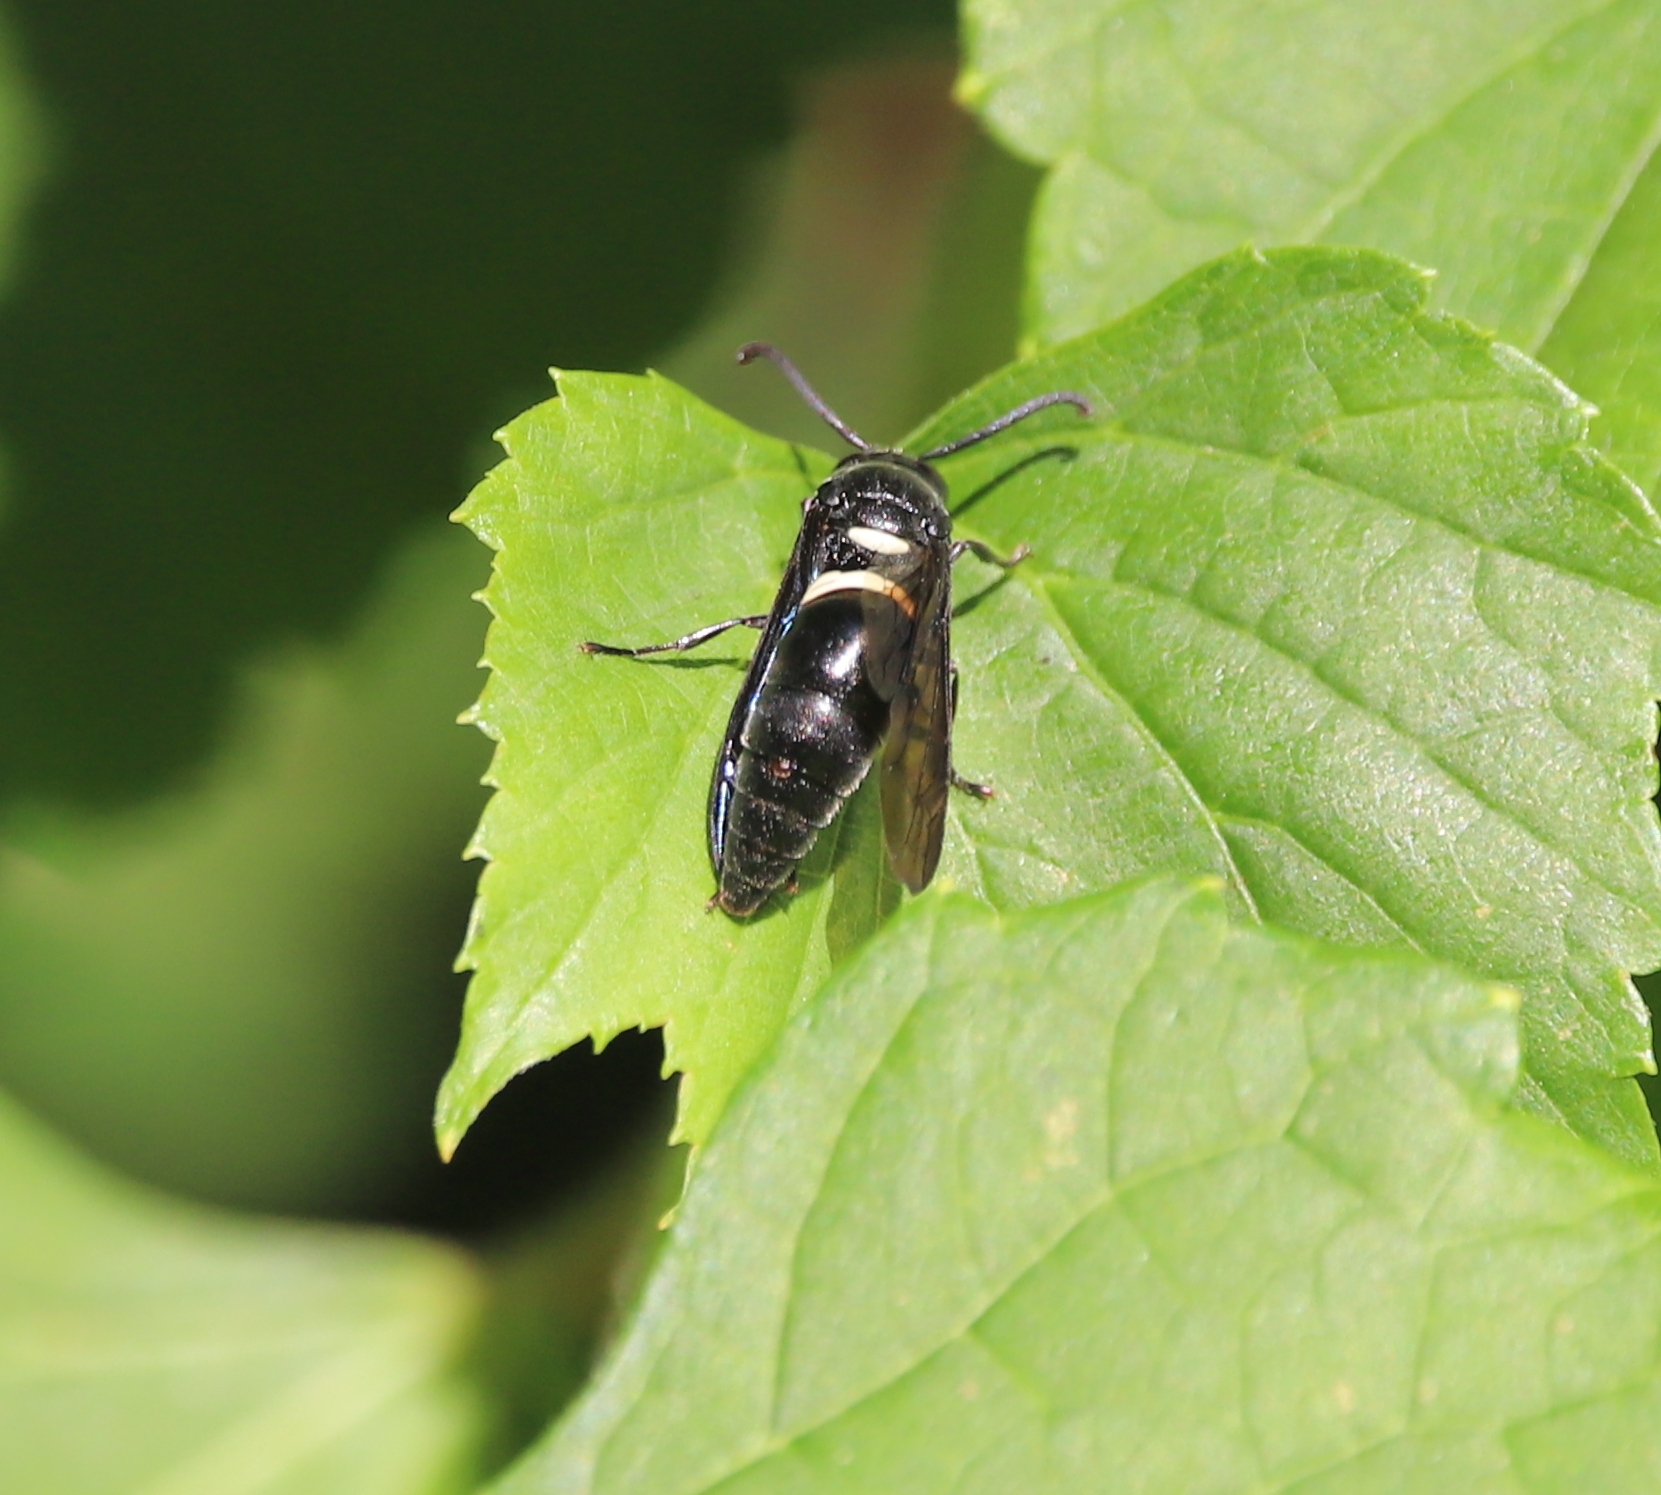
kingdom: Animalia
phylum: Arthropoda
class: Insecta
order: Hymenoptera
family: Eumenidae
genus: Monobia
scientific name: Monobia quadridens
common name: Four-toothed mason wasp
